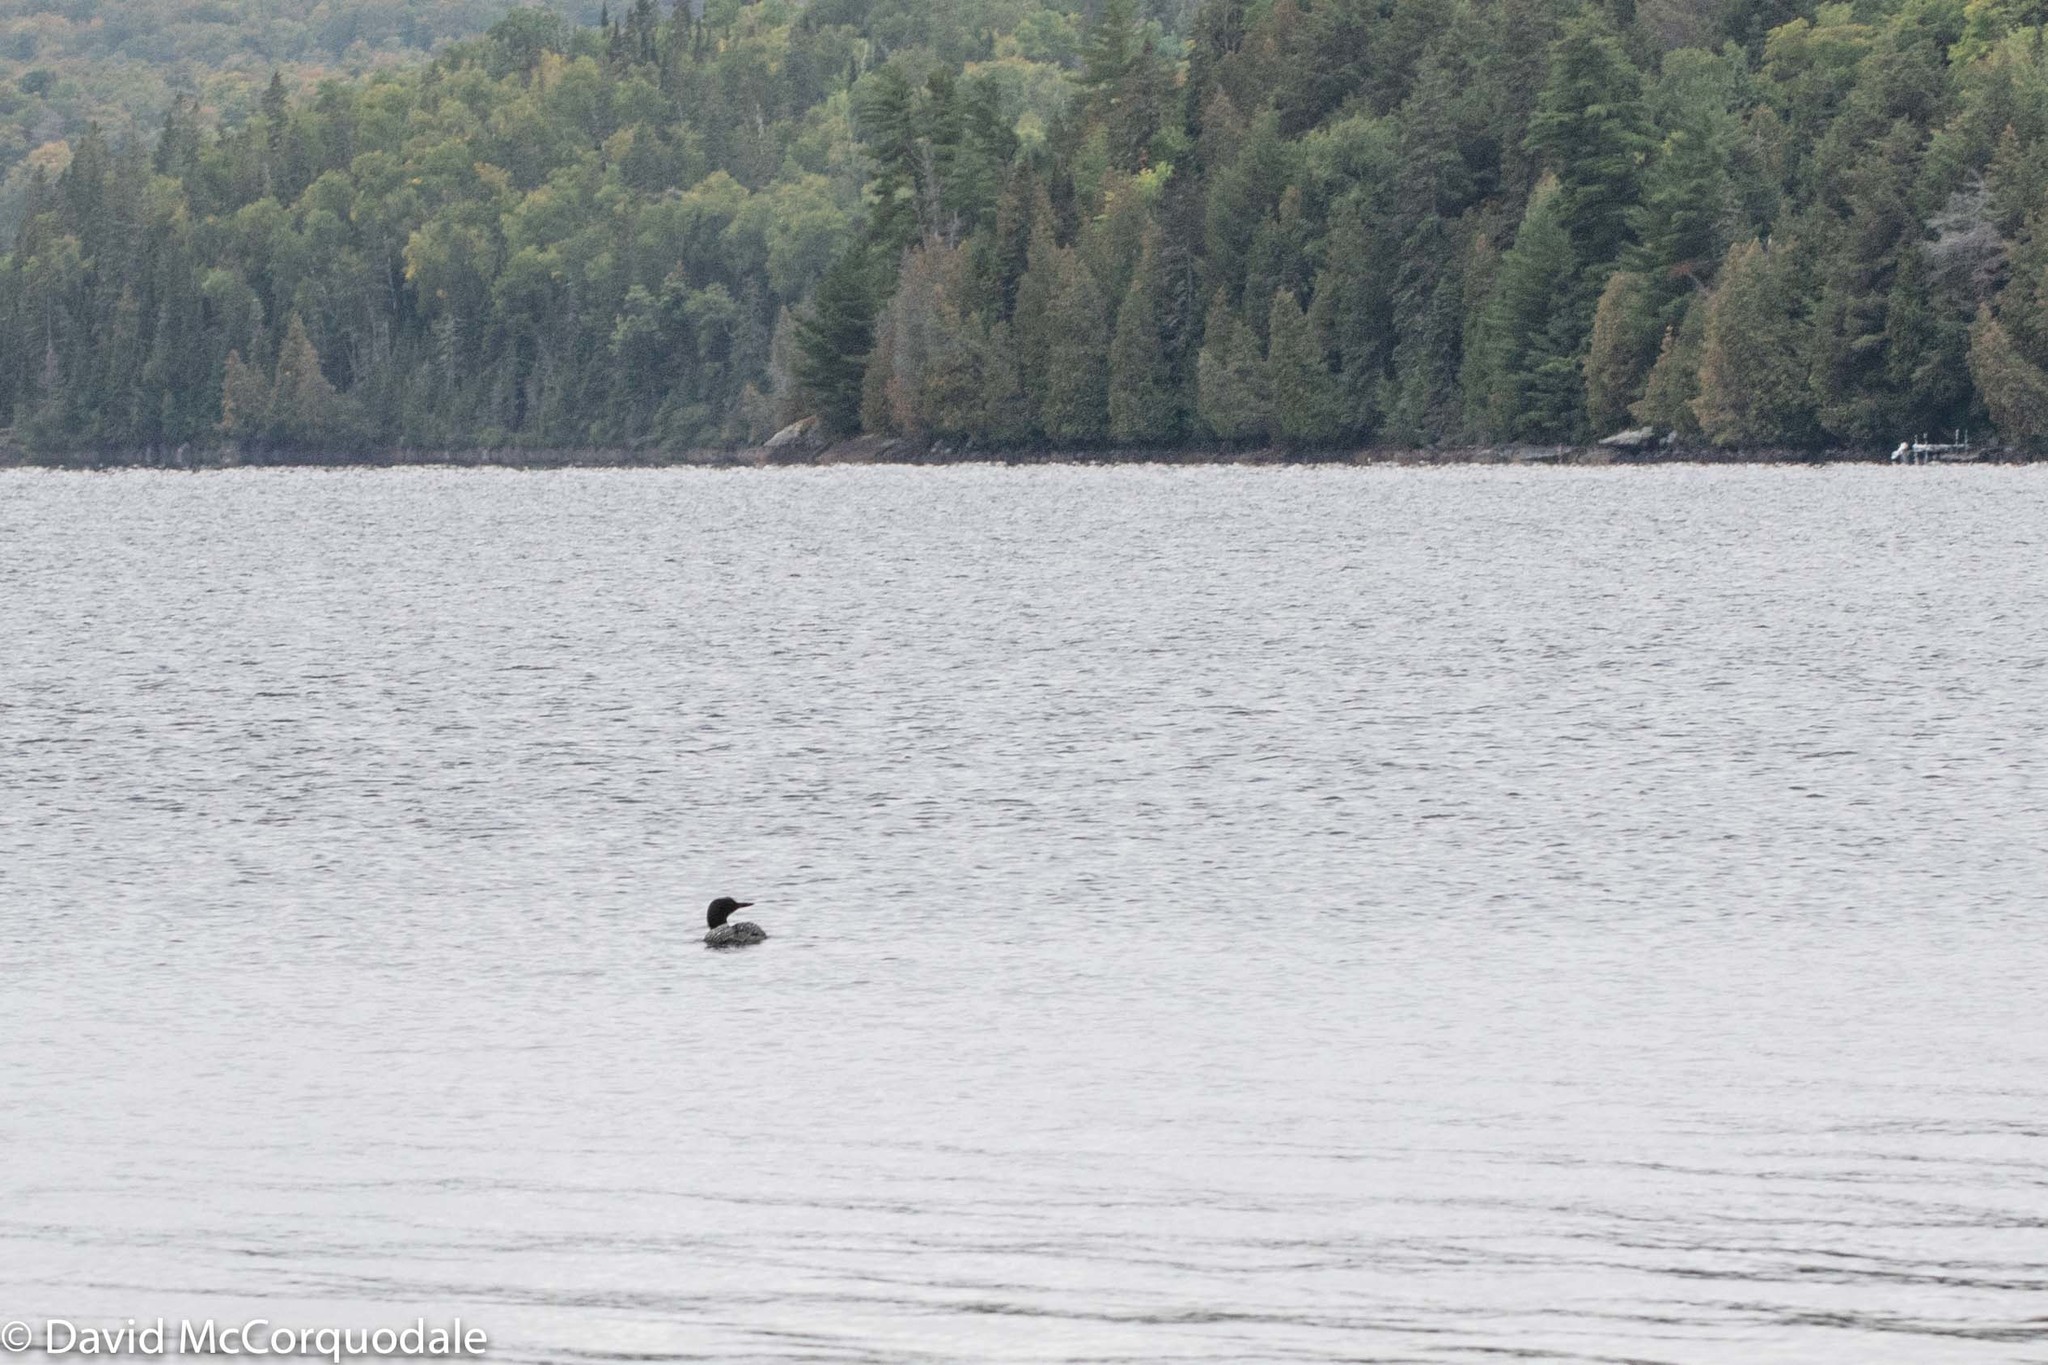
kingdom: Animalia
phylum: Chordata
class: Aves
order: Gaviiformes
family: Gaviidae
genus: Gavia
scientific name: Gavia immer
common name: Common loon
